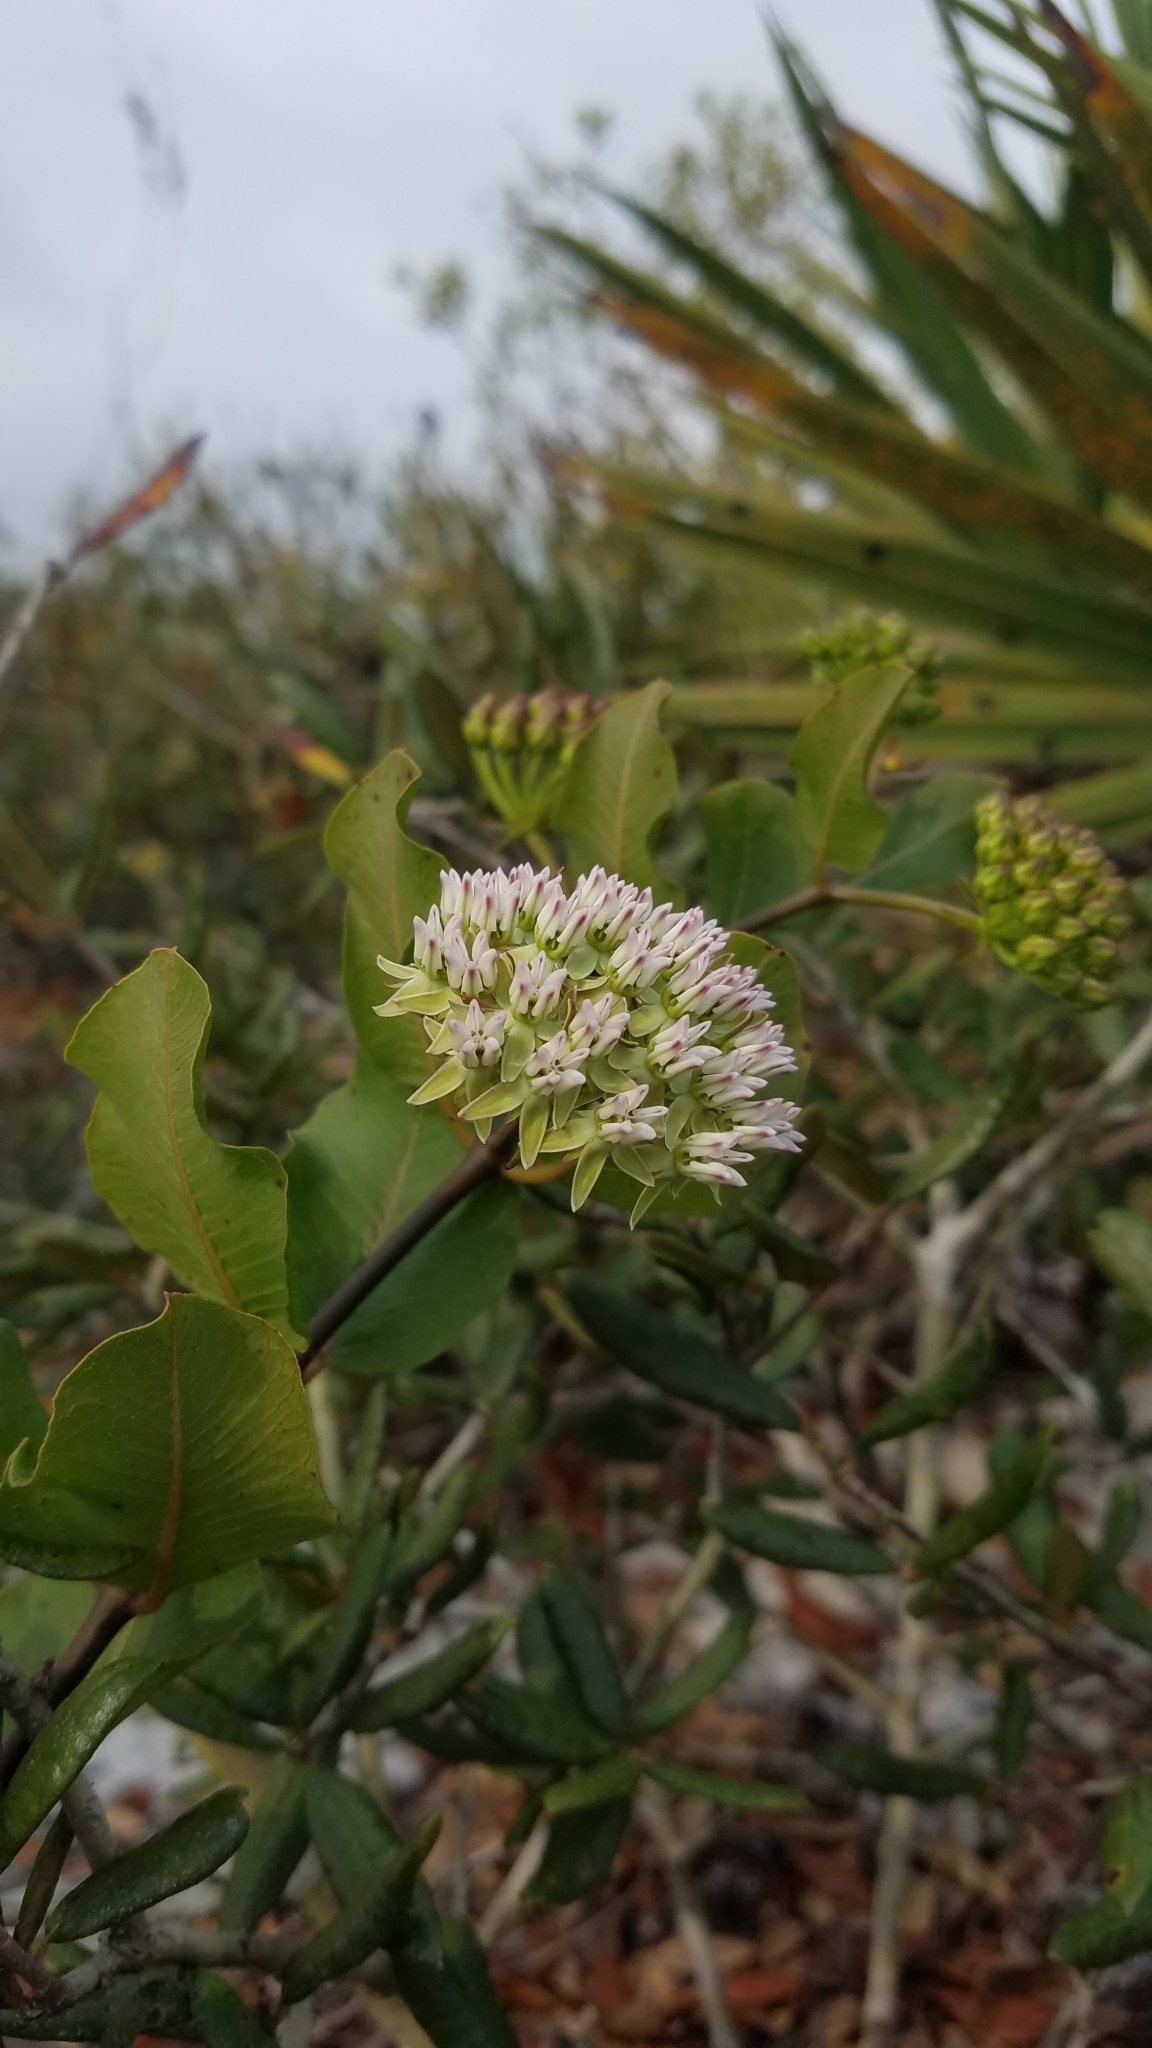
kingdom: Plantae
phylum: Tracheophyta
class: Magnoliopsida
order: Gentianales
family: Apocynaceae
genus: Asclepias
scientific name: Asclepias curtissii
